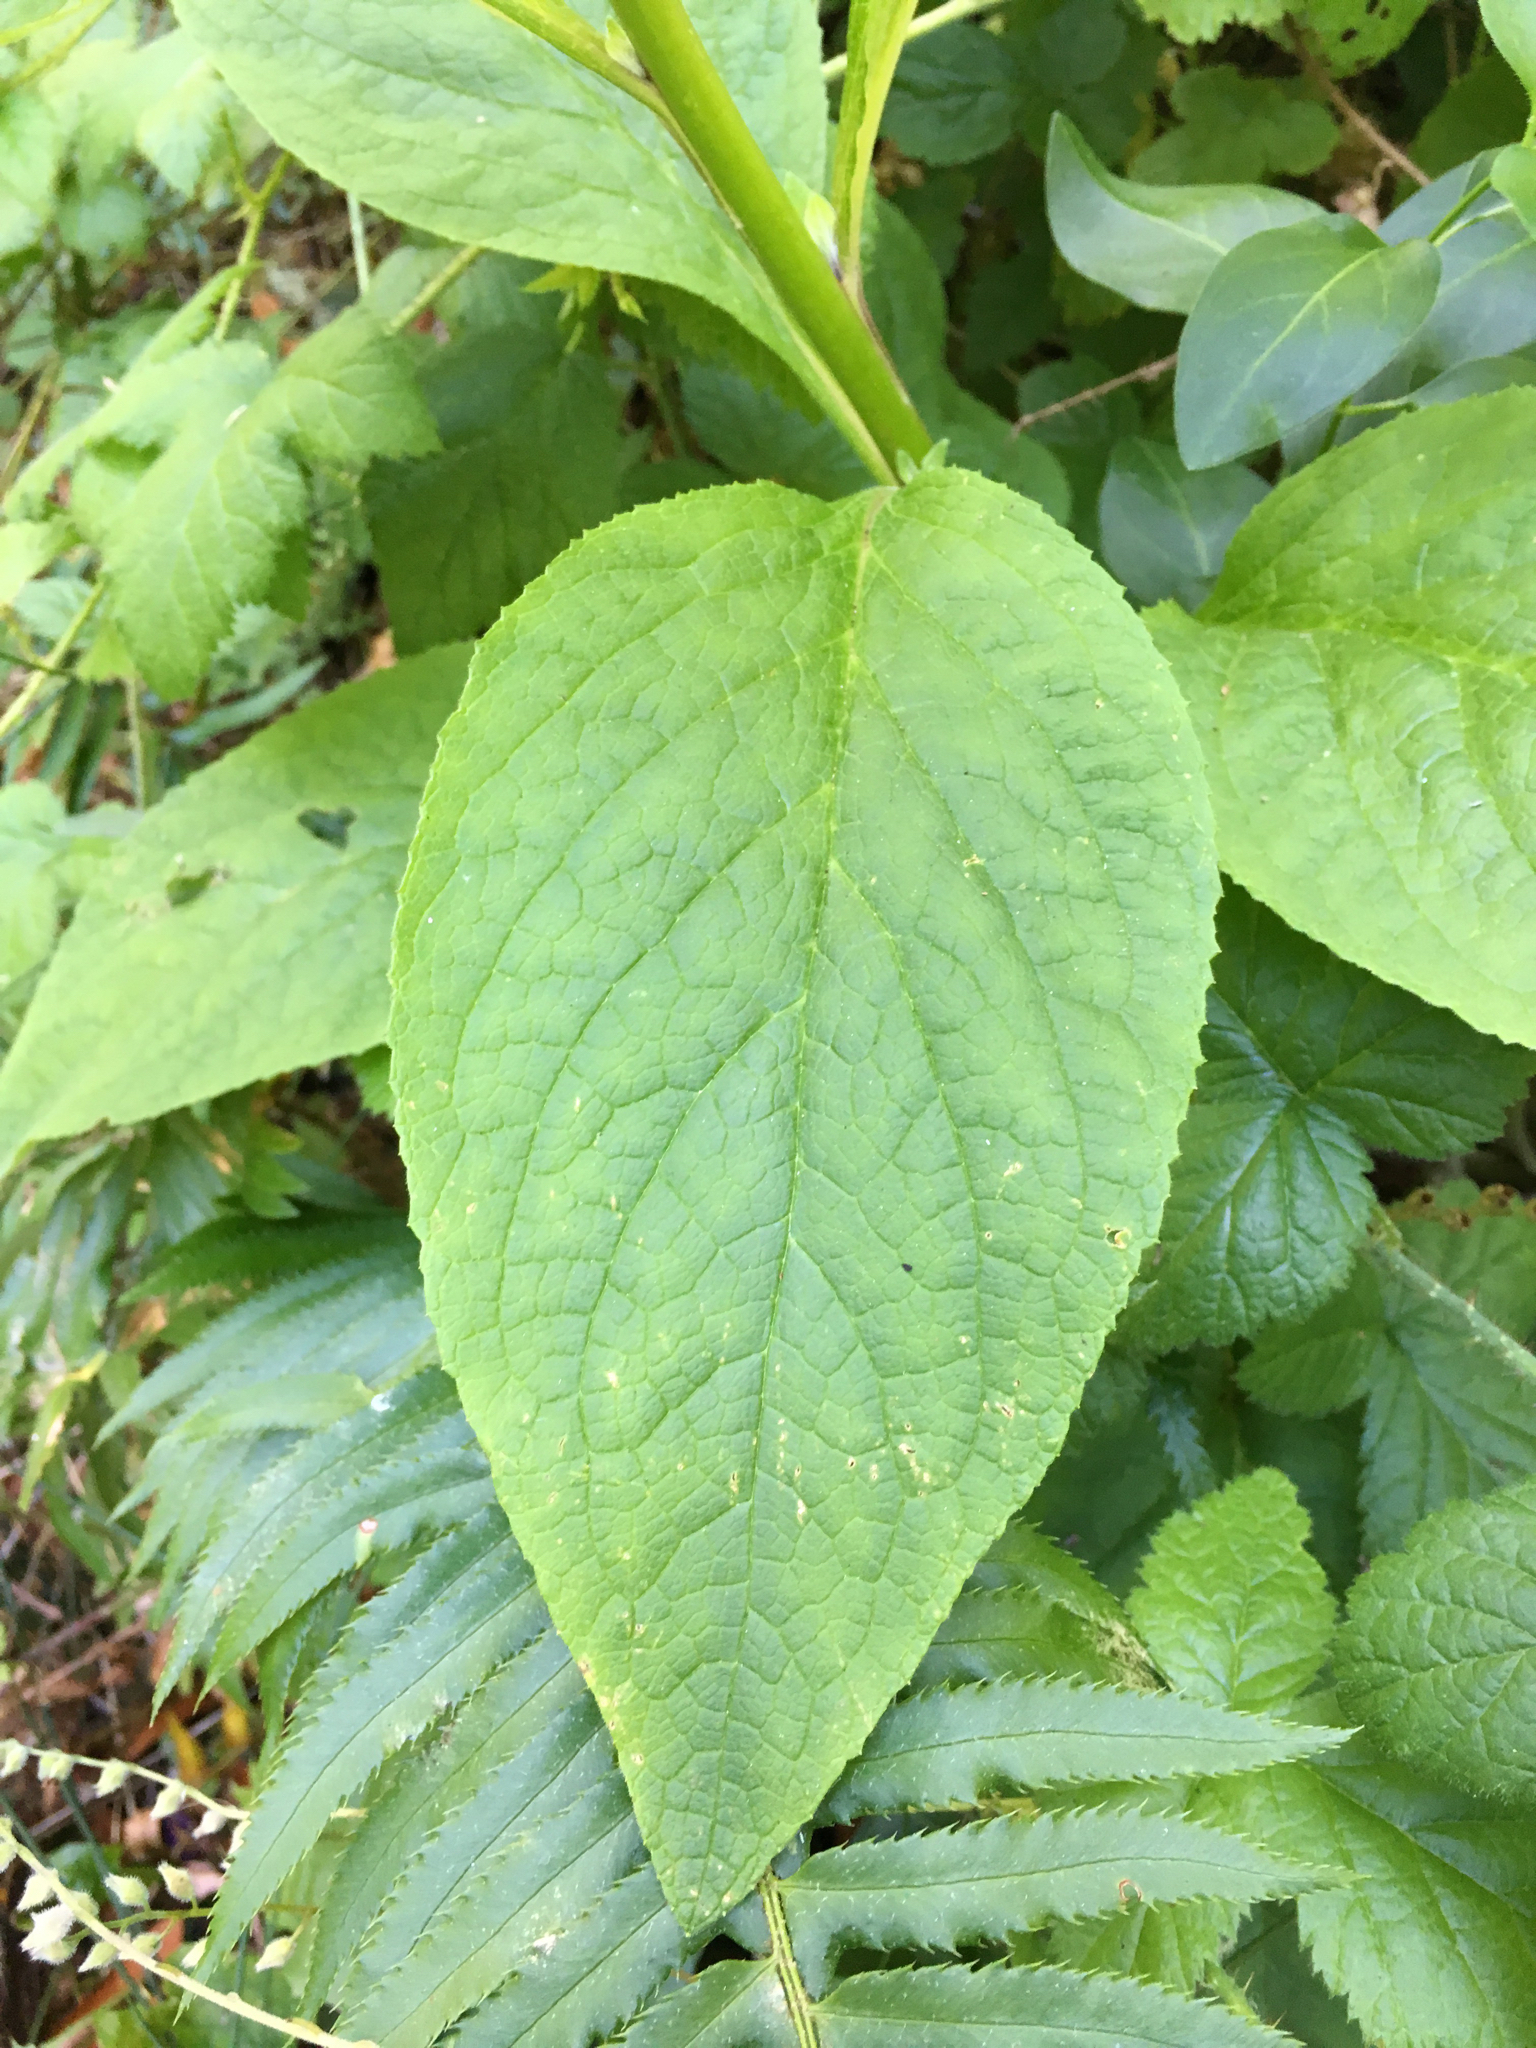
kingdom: Plantae
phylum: Tracheophyta
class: Magnoliopsida
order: Lamiales
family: Plantaginaceae
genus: Digitalis
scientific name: Digitalis purpurea
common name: Foxglove
